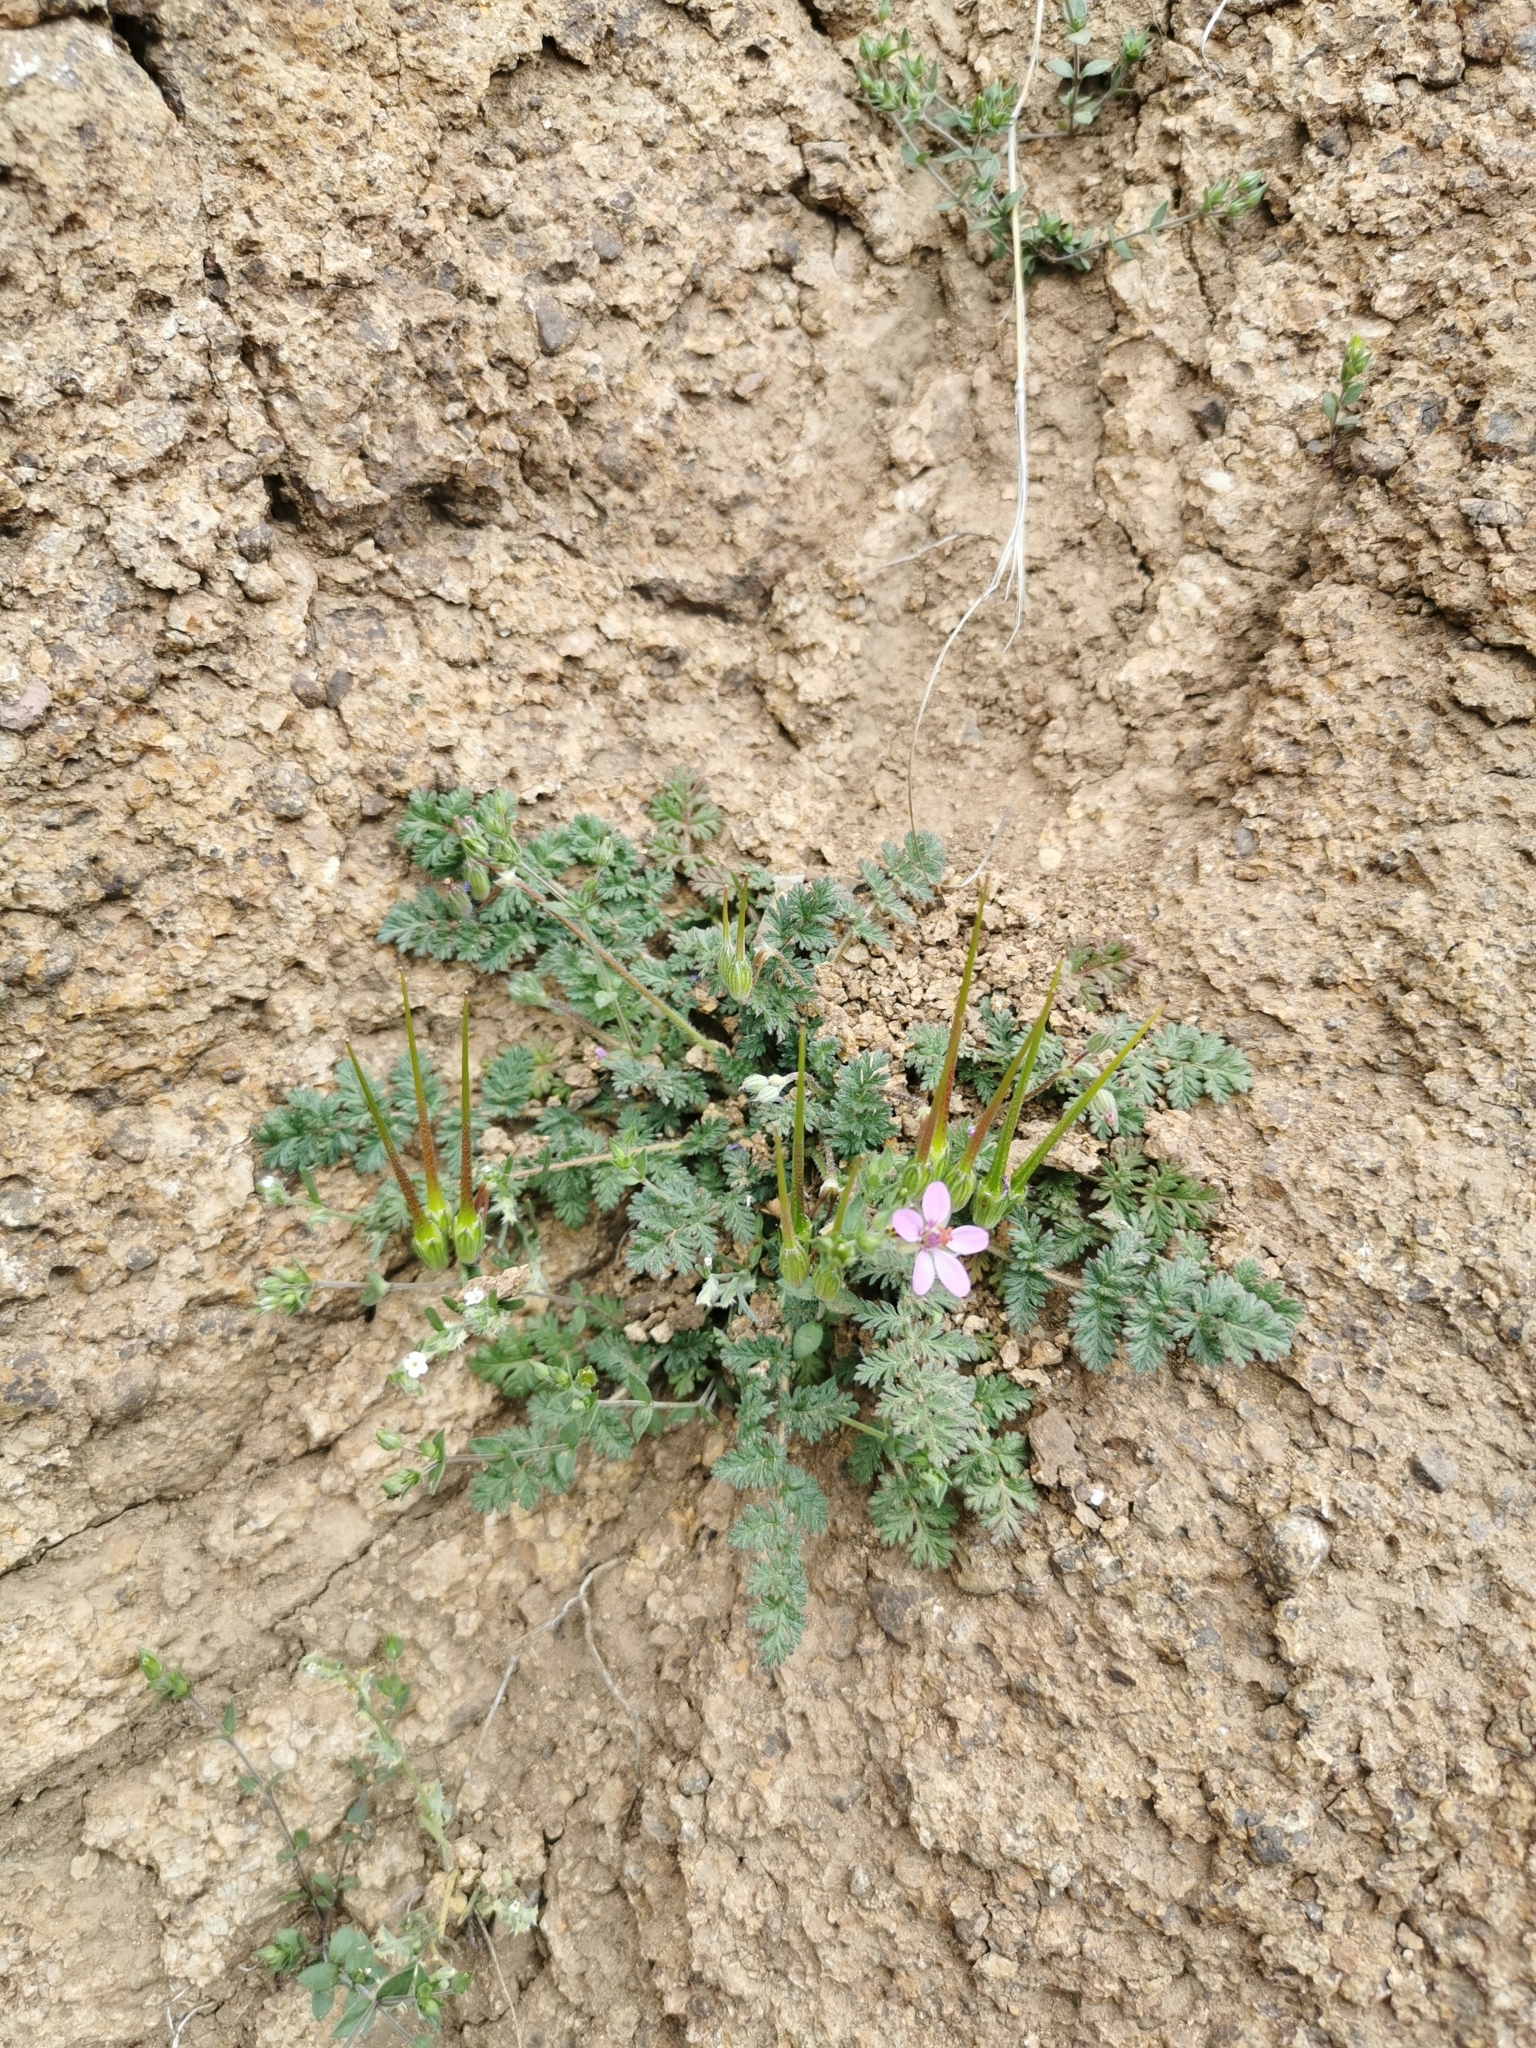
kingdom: Plantae
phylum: Tracheophyta
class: Magnoliopsida
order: Geraniales
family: Geraniaceae
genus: Erodium
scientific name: Erodium cicutarium
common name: Common stork's-bill
